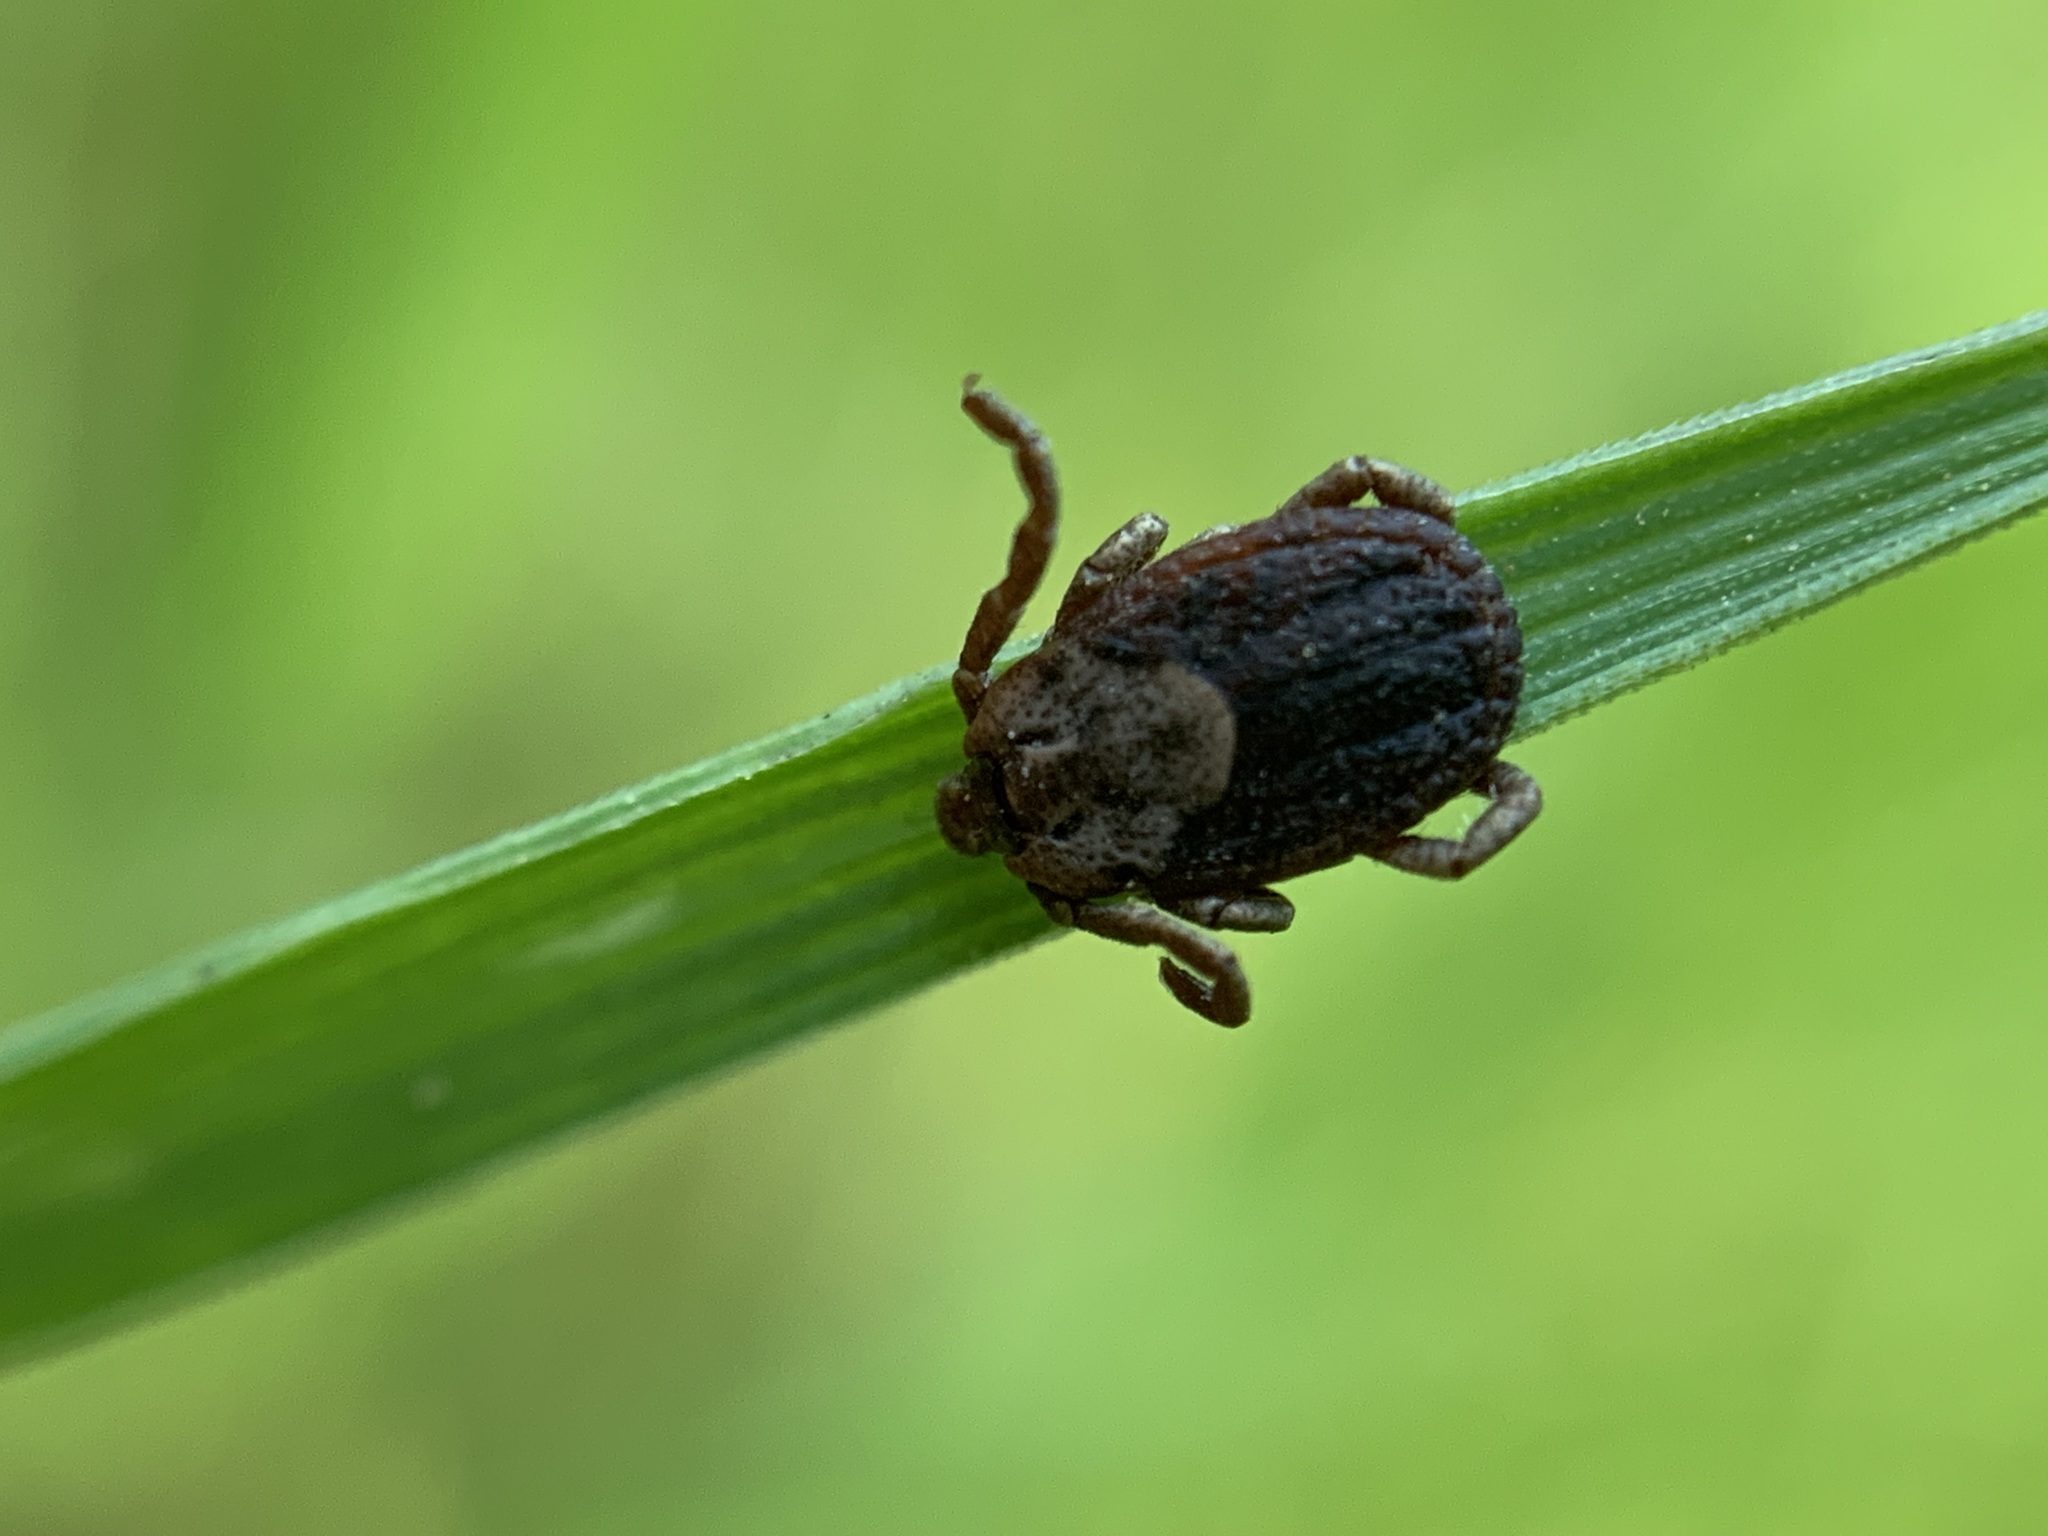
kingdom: Animalia
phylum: Arthropoda
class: Arachnida
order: Ixodida
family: Ixodidae
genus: Dermacentor
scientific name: Dermacentor occidentalis
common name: Net tick
